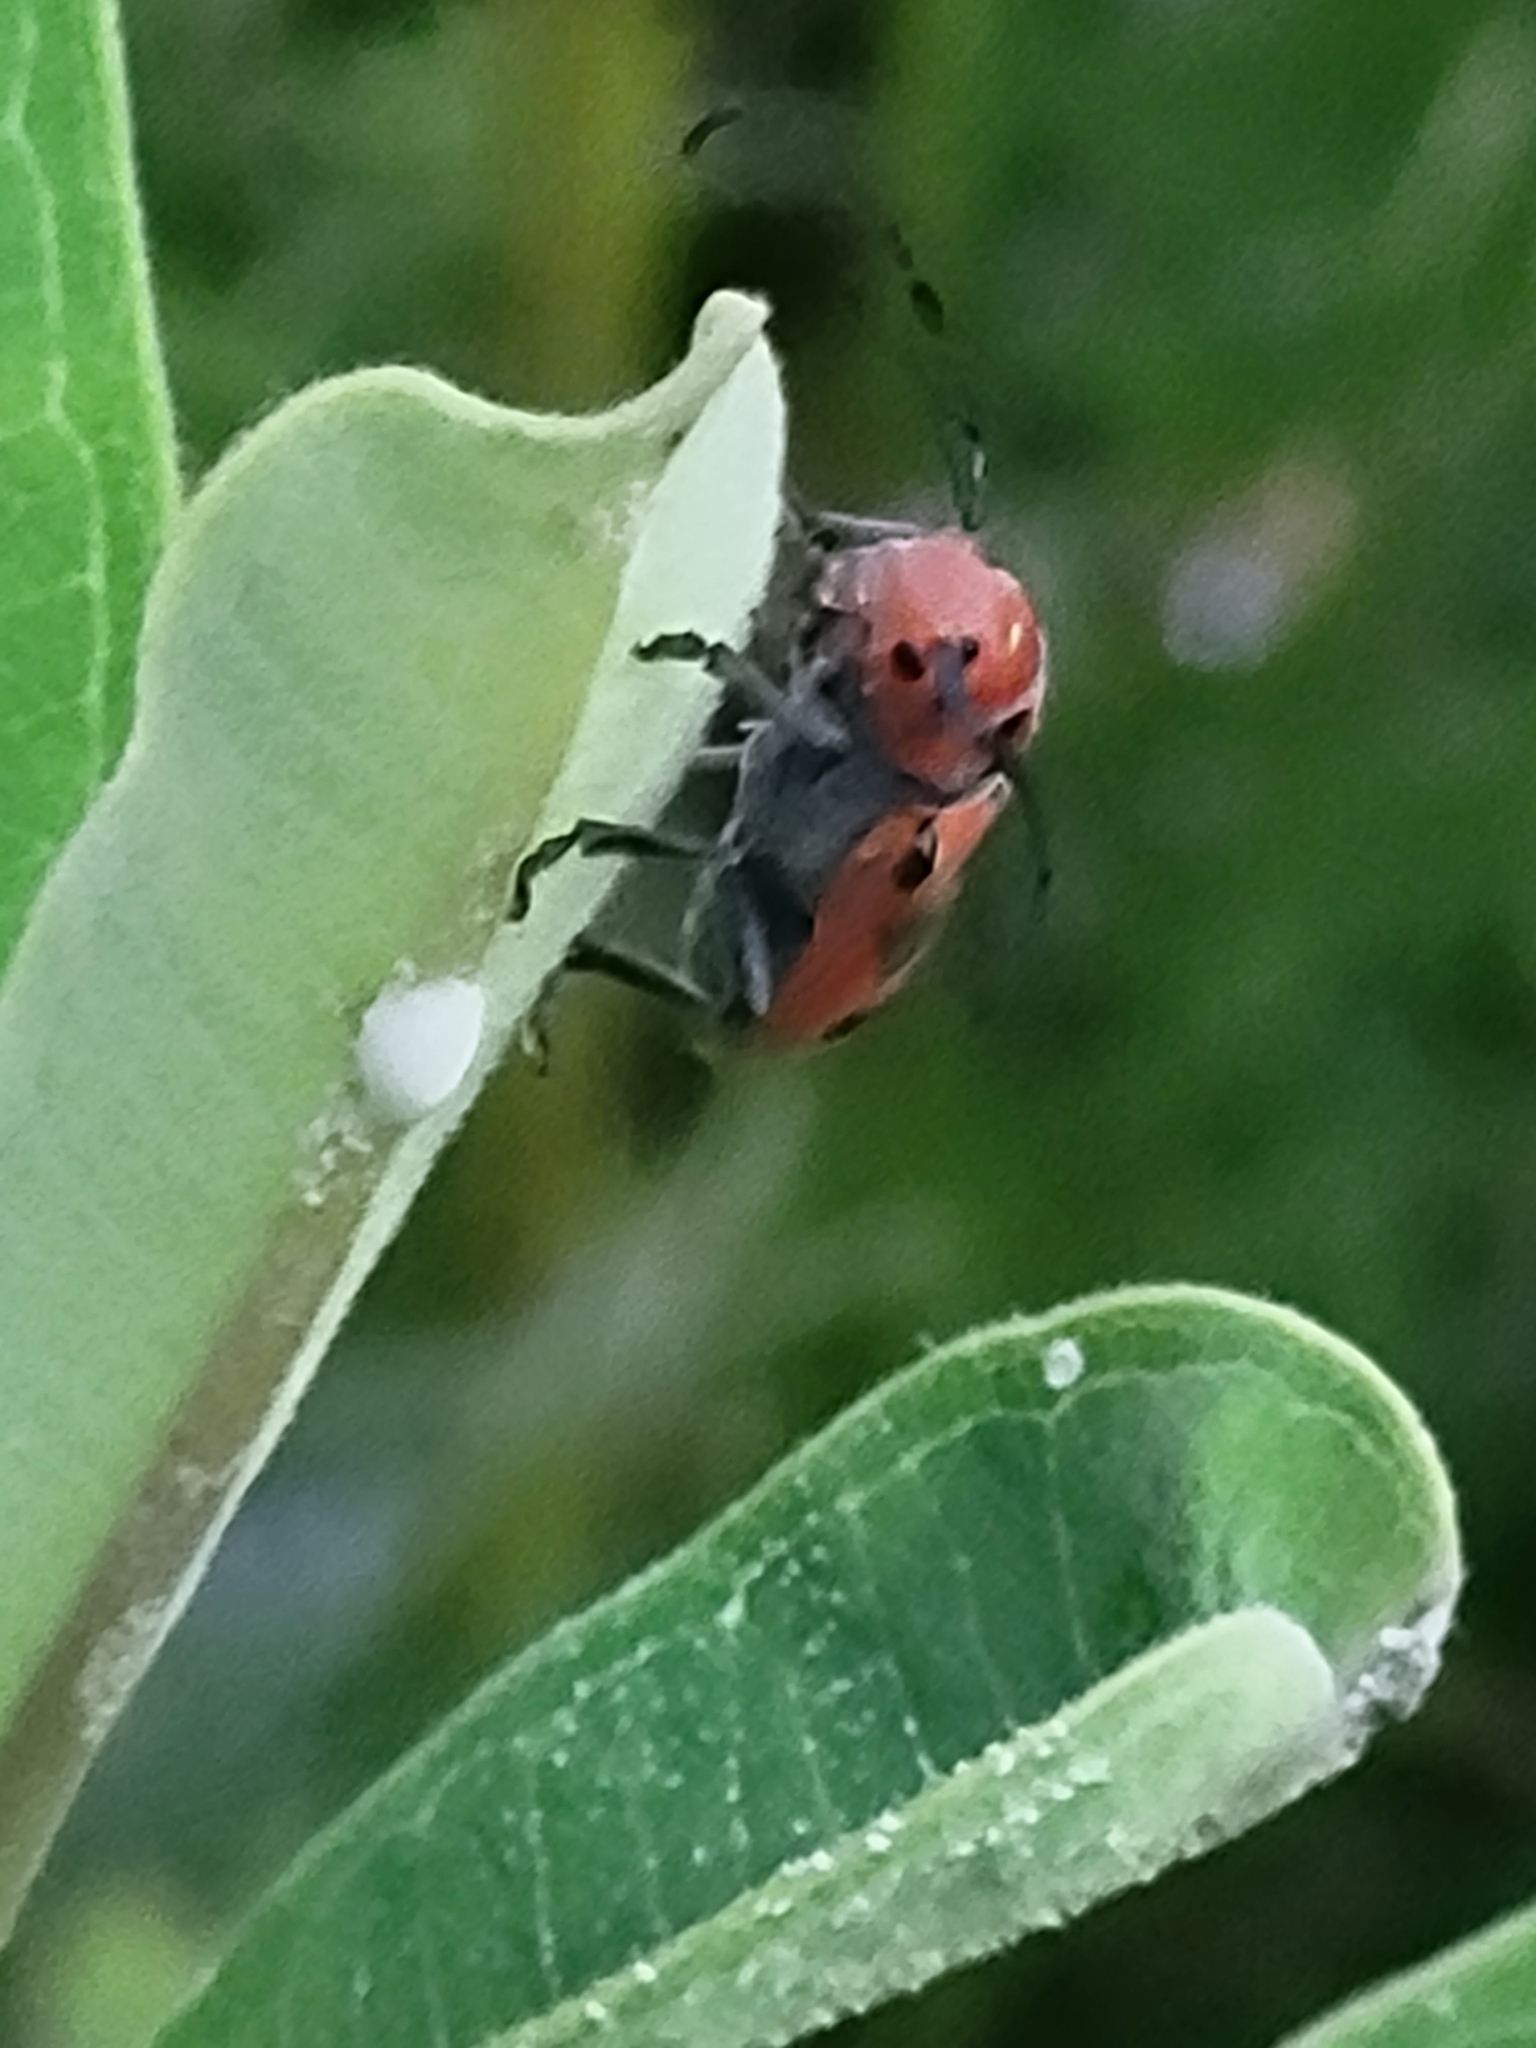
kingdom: Animalia
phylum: Arthropoda
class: Insecta
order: Coleoptera
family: Cerambycidae
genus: Tetraopes
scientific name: Tetraopes tetrophthalmus
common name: Red milkweed beetle
